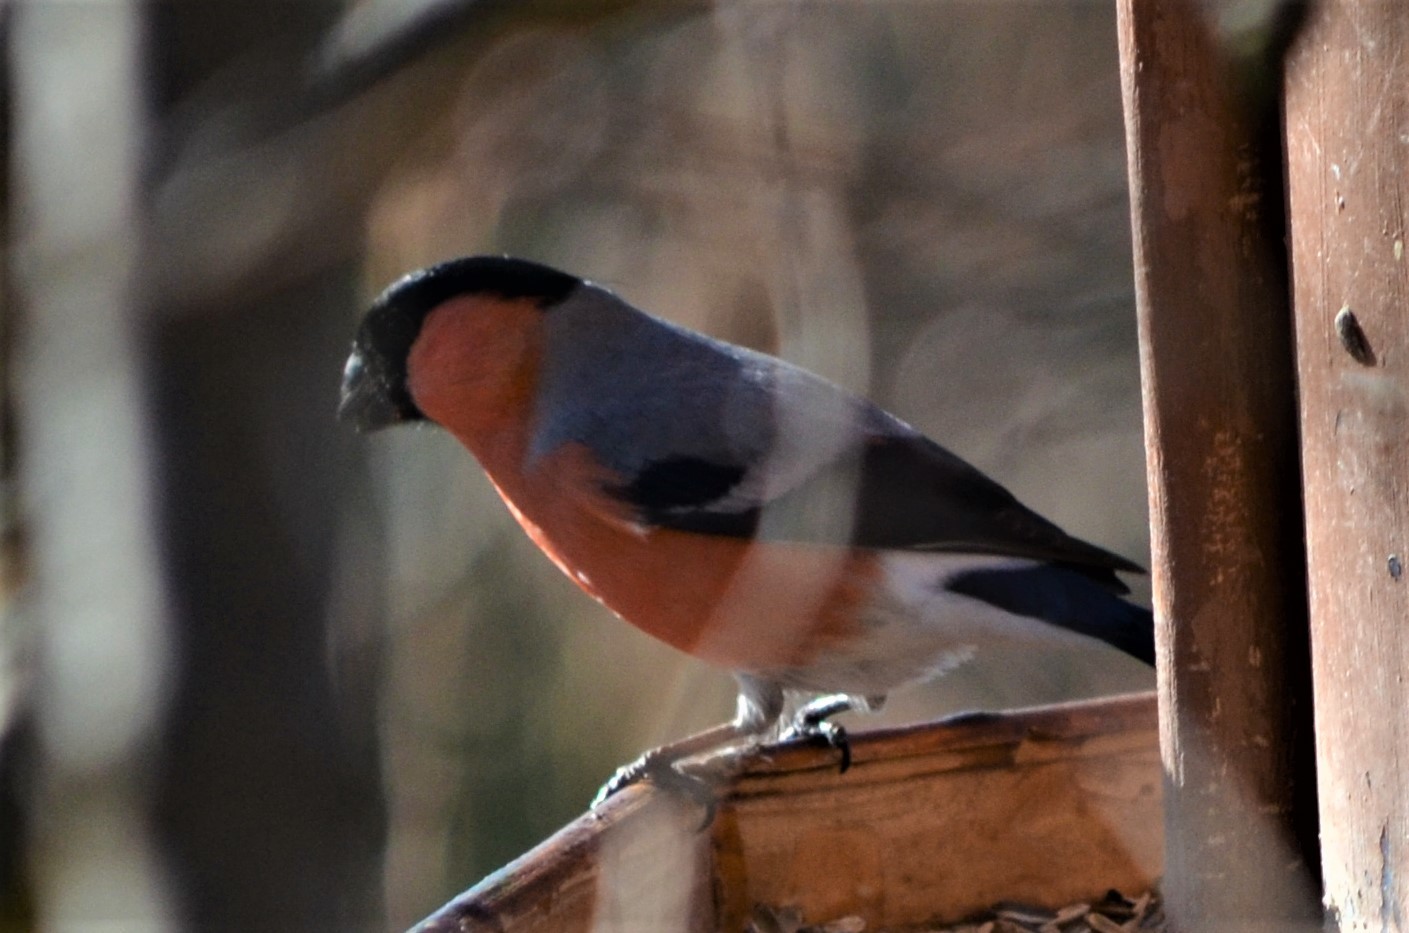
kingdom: Animalia
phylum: Chordata
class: Aves
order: Passeriformes
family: Fringillidae
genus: Pyrrhula
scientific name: Pyrrhula pyrrhula
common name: Eurasian bullfinch
